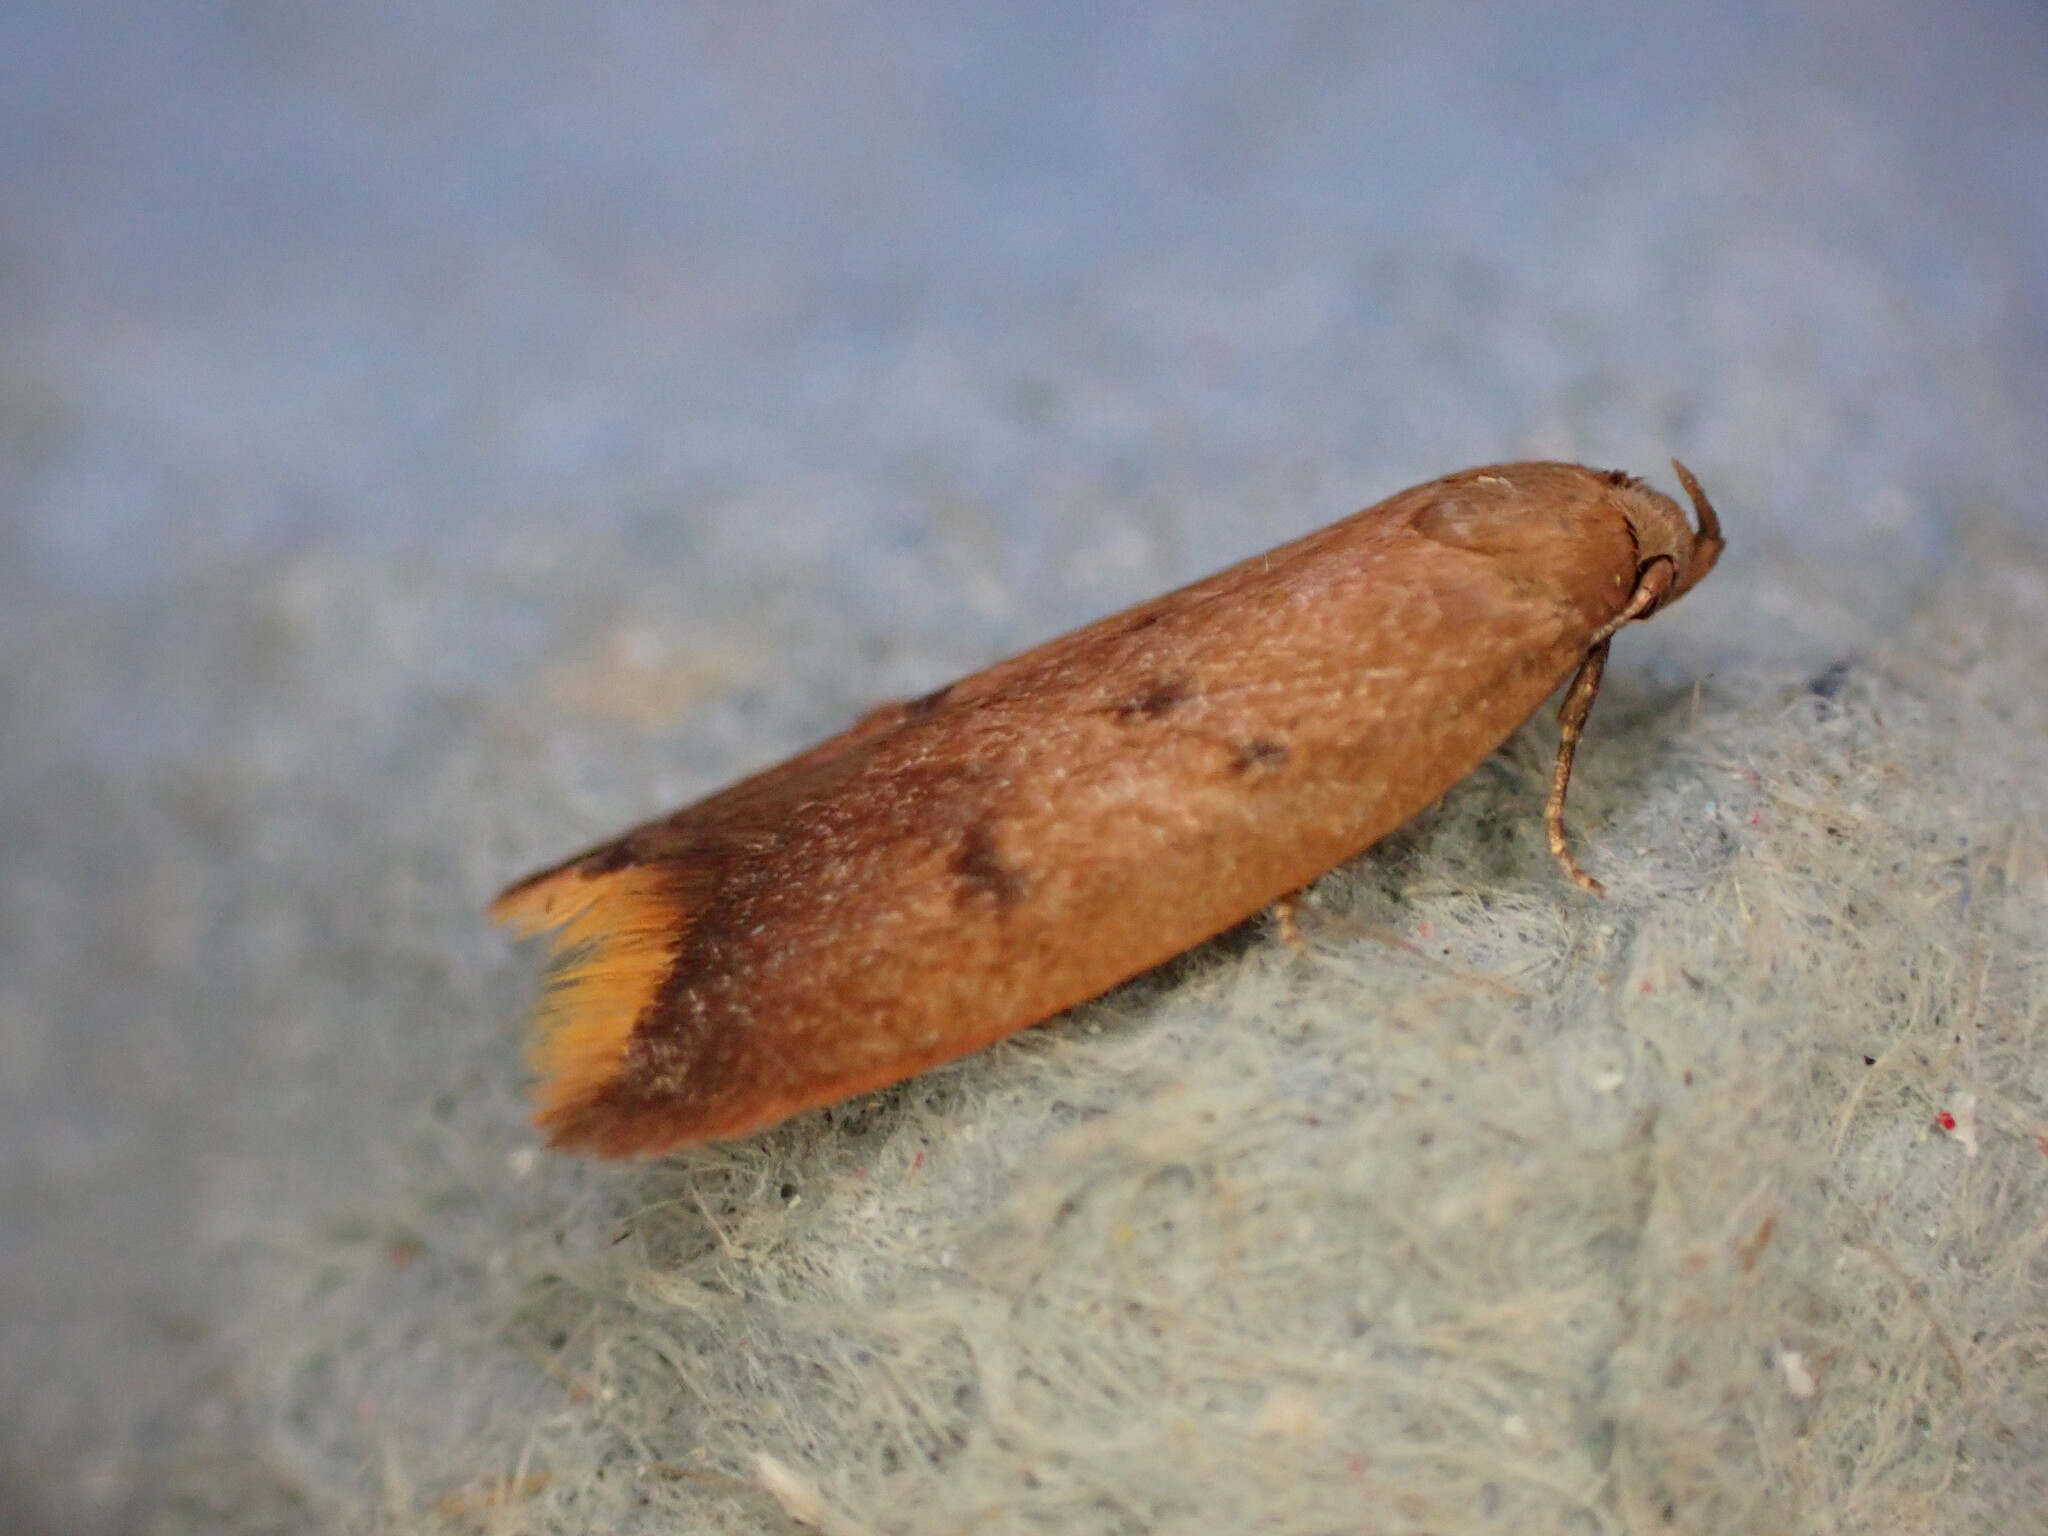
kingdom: Animalia
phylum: Arthropoda
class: Insecta
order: Lepidoptera
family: Oecophoridae
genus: Tachystola
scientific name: Tachystola acroxantha
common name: Ruddy streak
